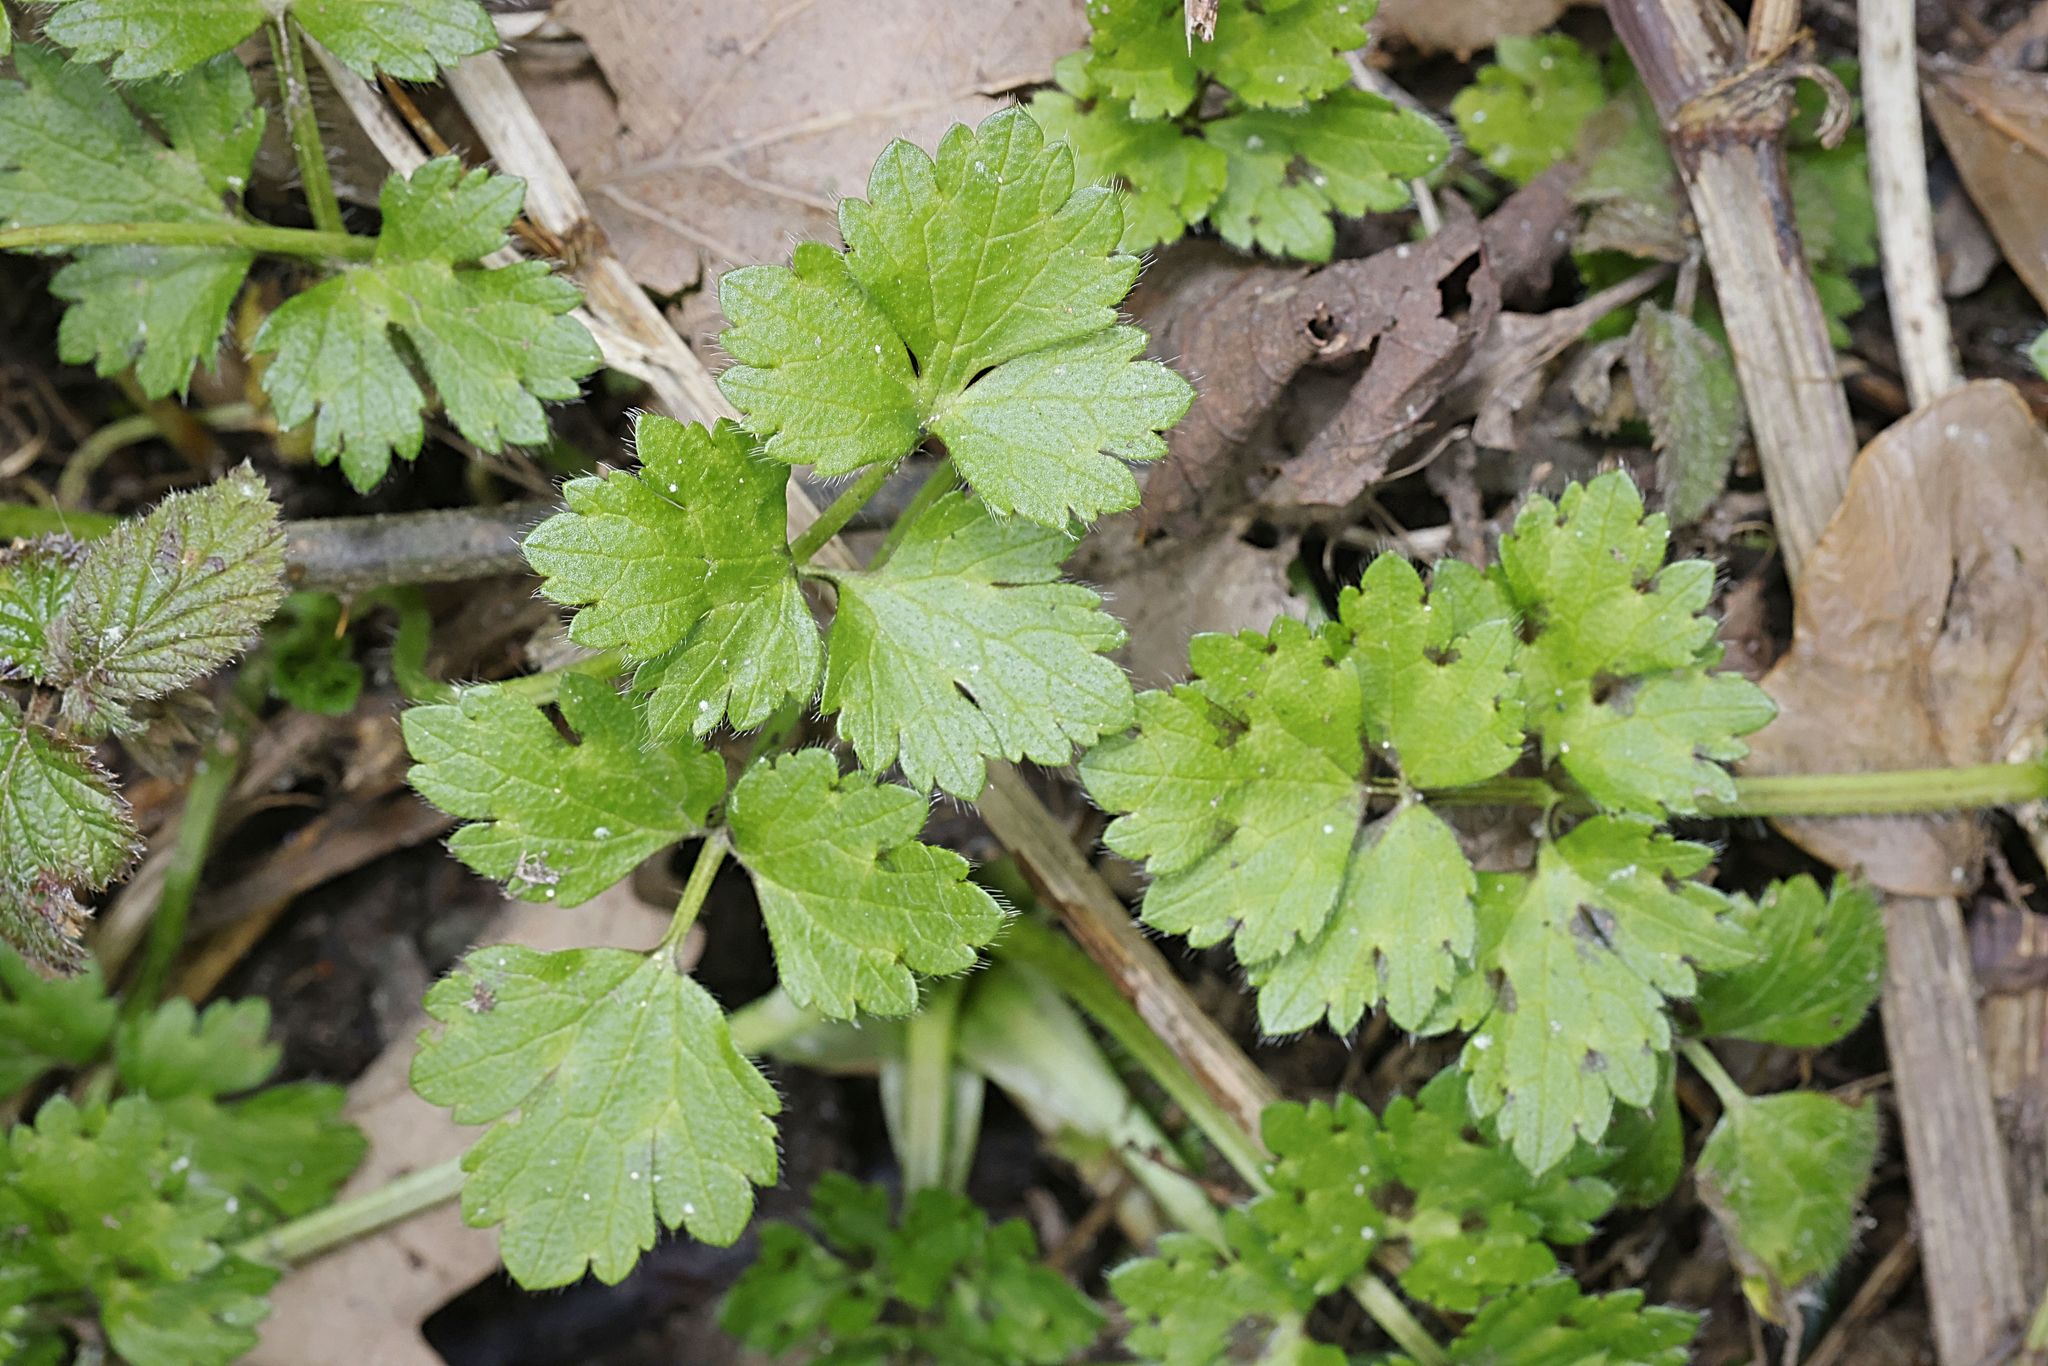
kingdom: Plantae
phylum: Tracheophyta
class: Magnoliopsida
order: Ranunculales
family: Ranunculaceae
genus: Ranunculus
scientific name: Ranunculus repens
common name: Creeping buttercup
